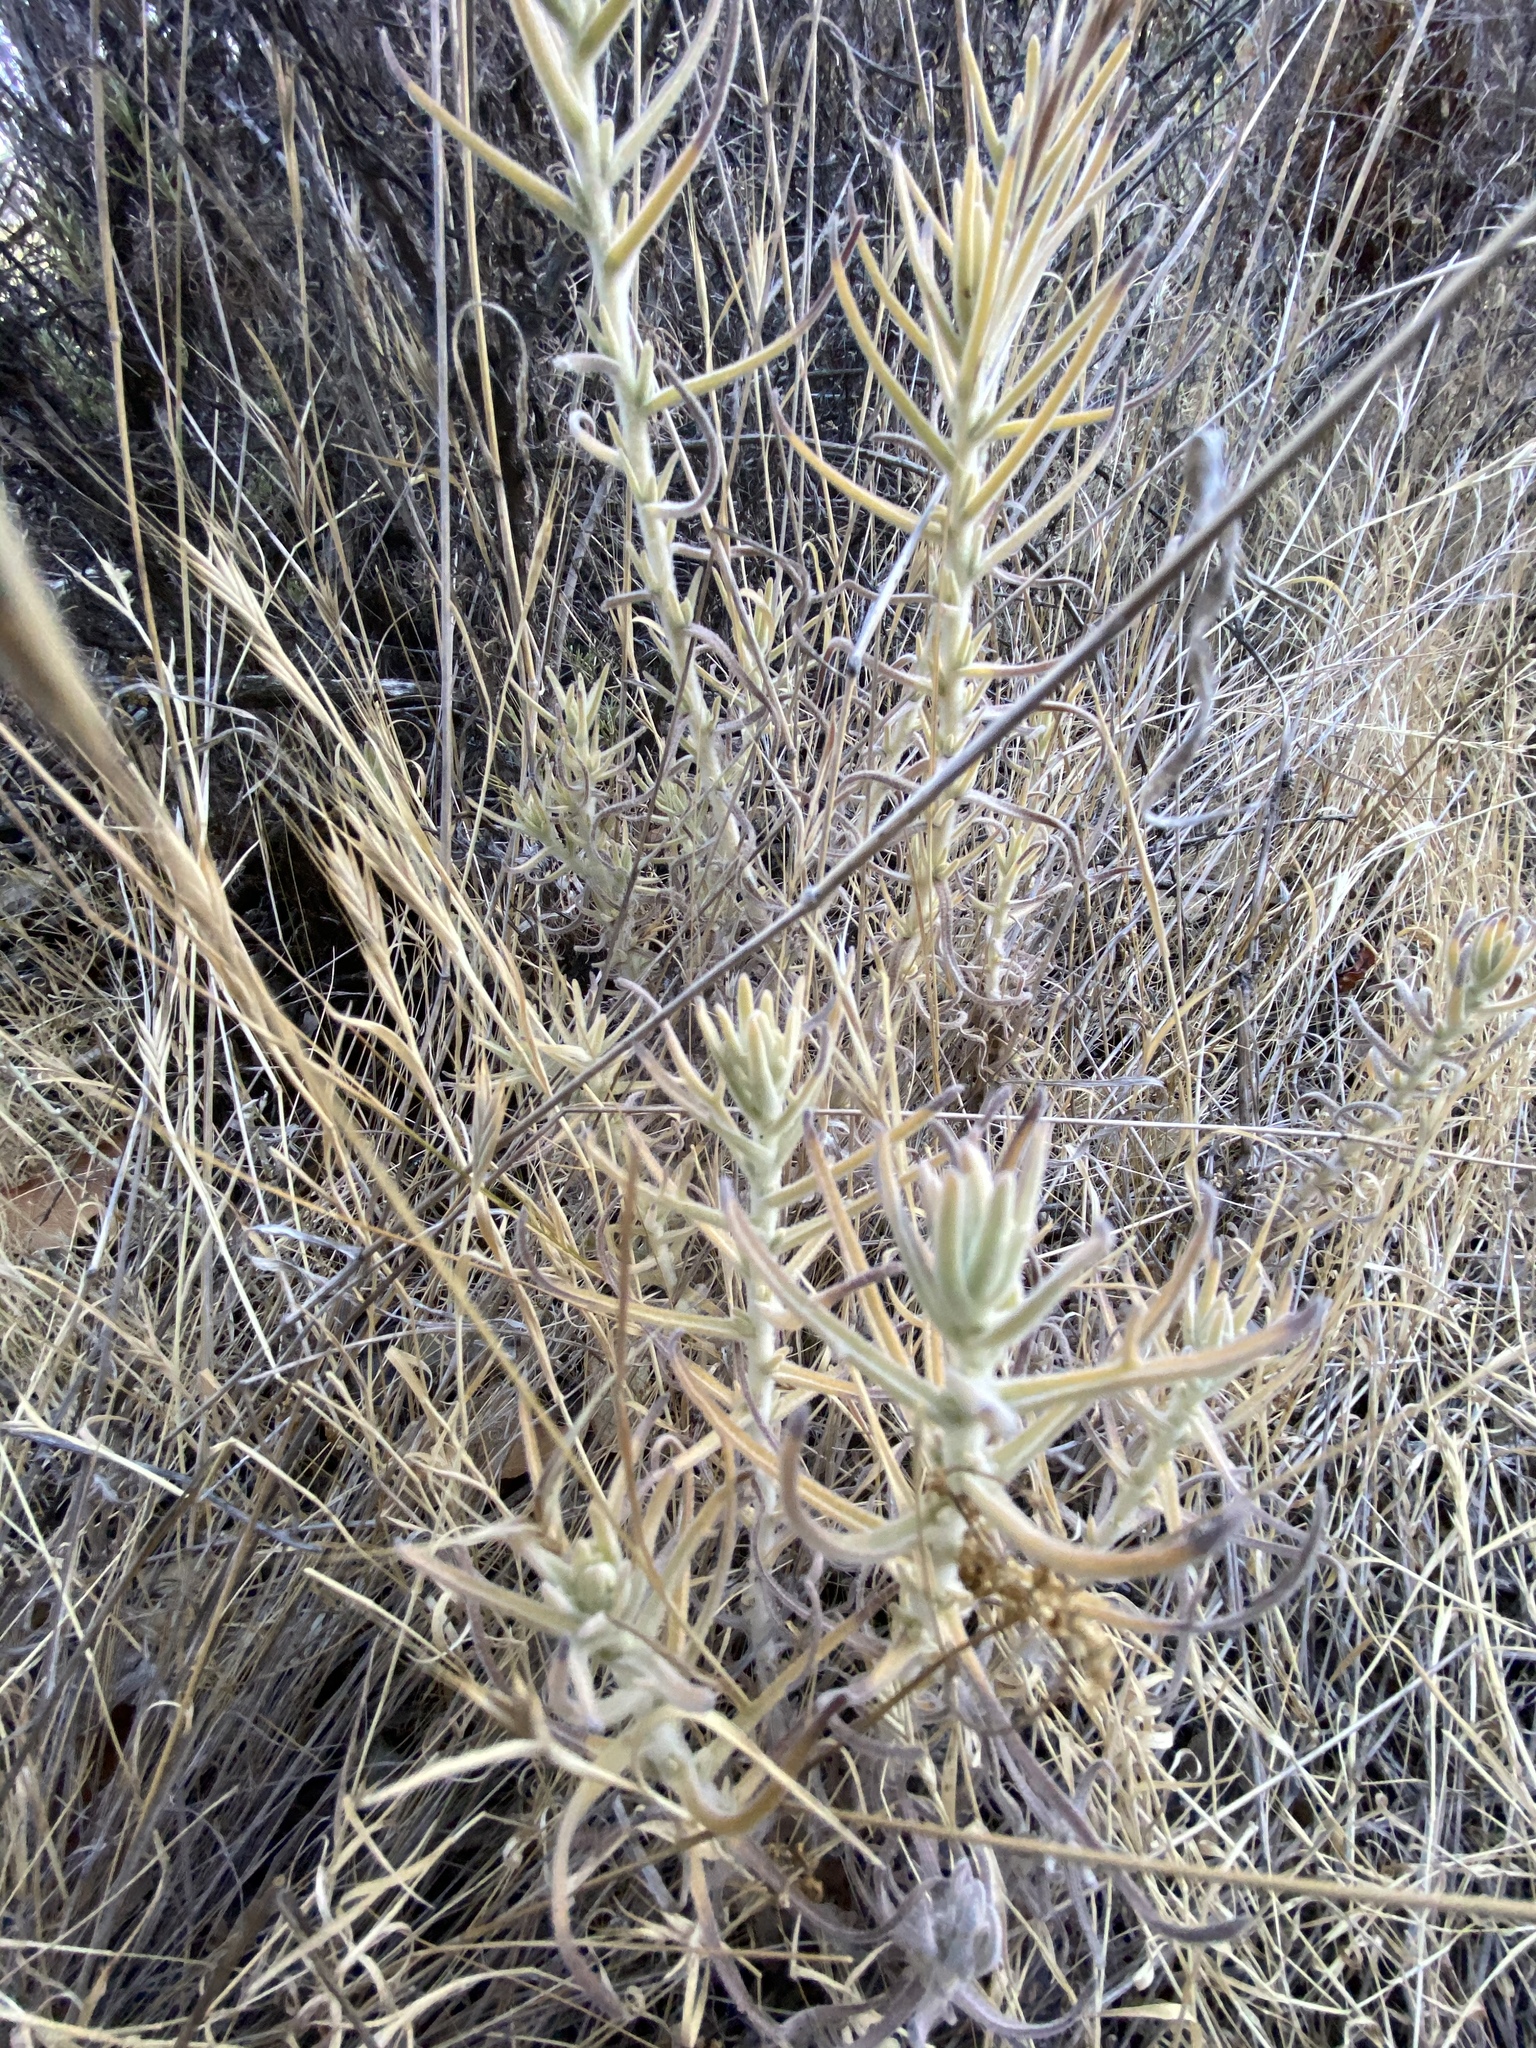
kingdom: Plantae
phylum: Tracheophyta
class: Magnoliopsida
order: Lamiales
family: Orobanchaceae
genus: Castilleja
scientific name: Castilleja foliolosa
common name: Woolly indian paintbrush
